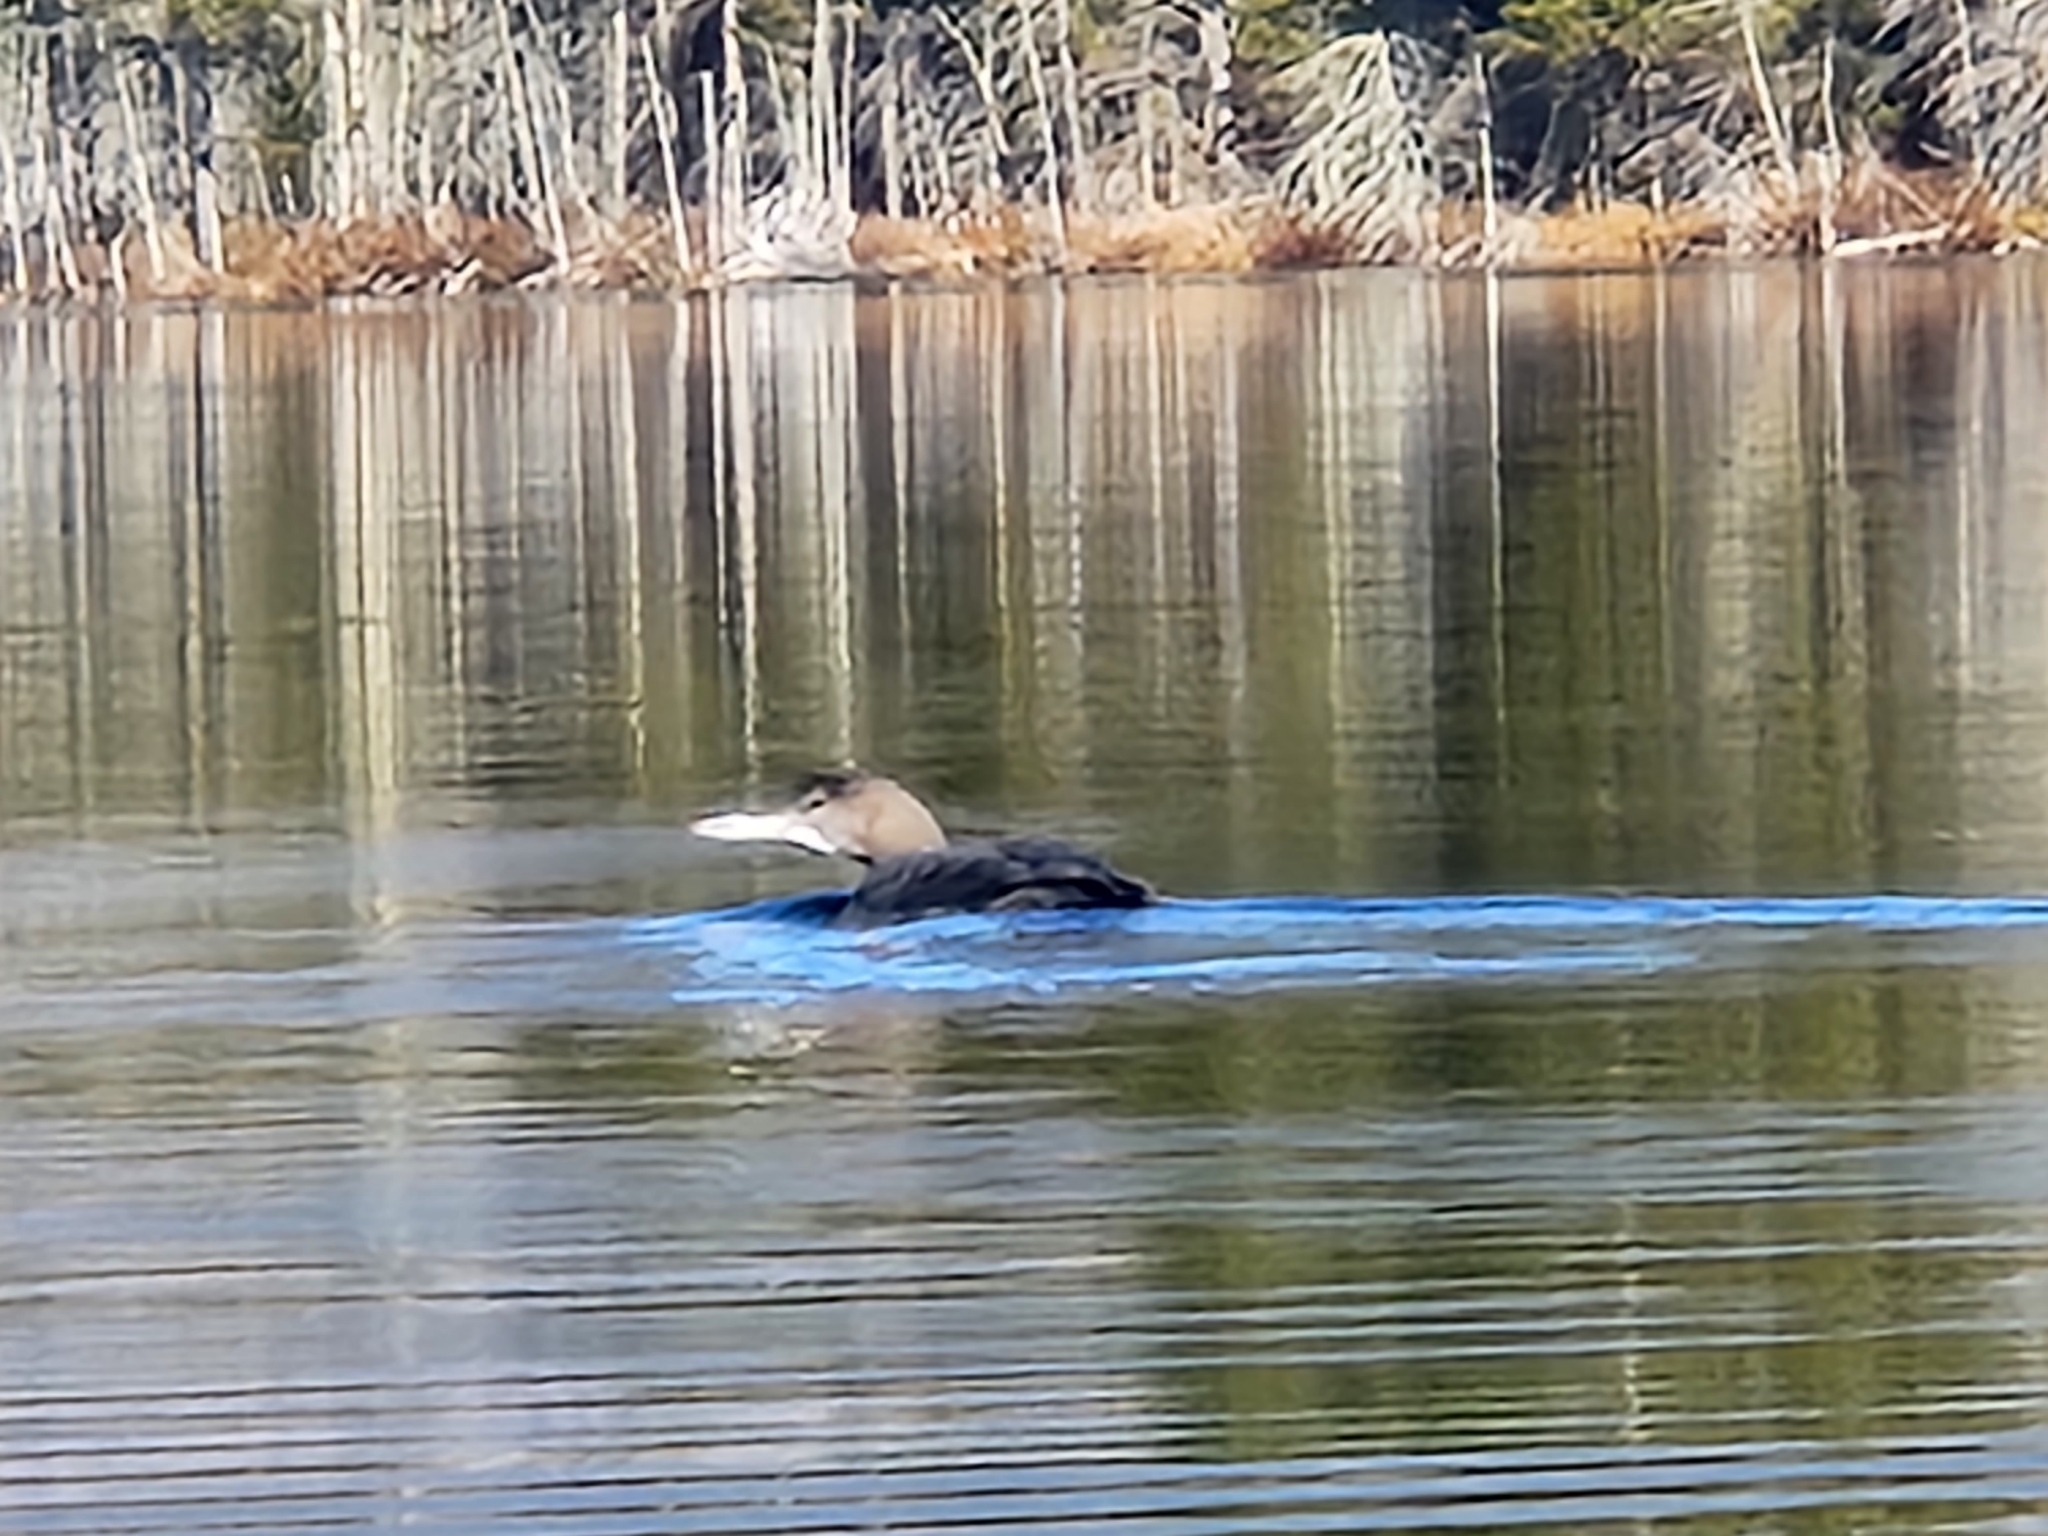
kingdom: Animalia
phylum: Chordata
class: Aves
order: Gaviiformes
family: Gaviidae
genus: Gavia
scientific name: Gavia immer
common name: Common loon
